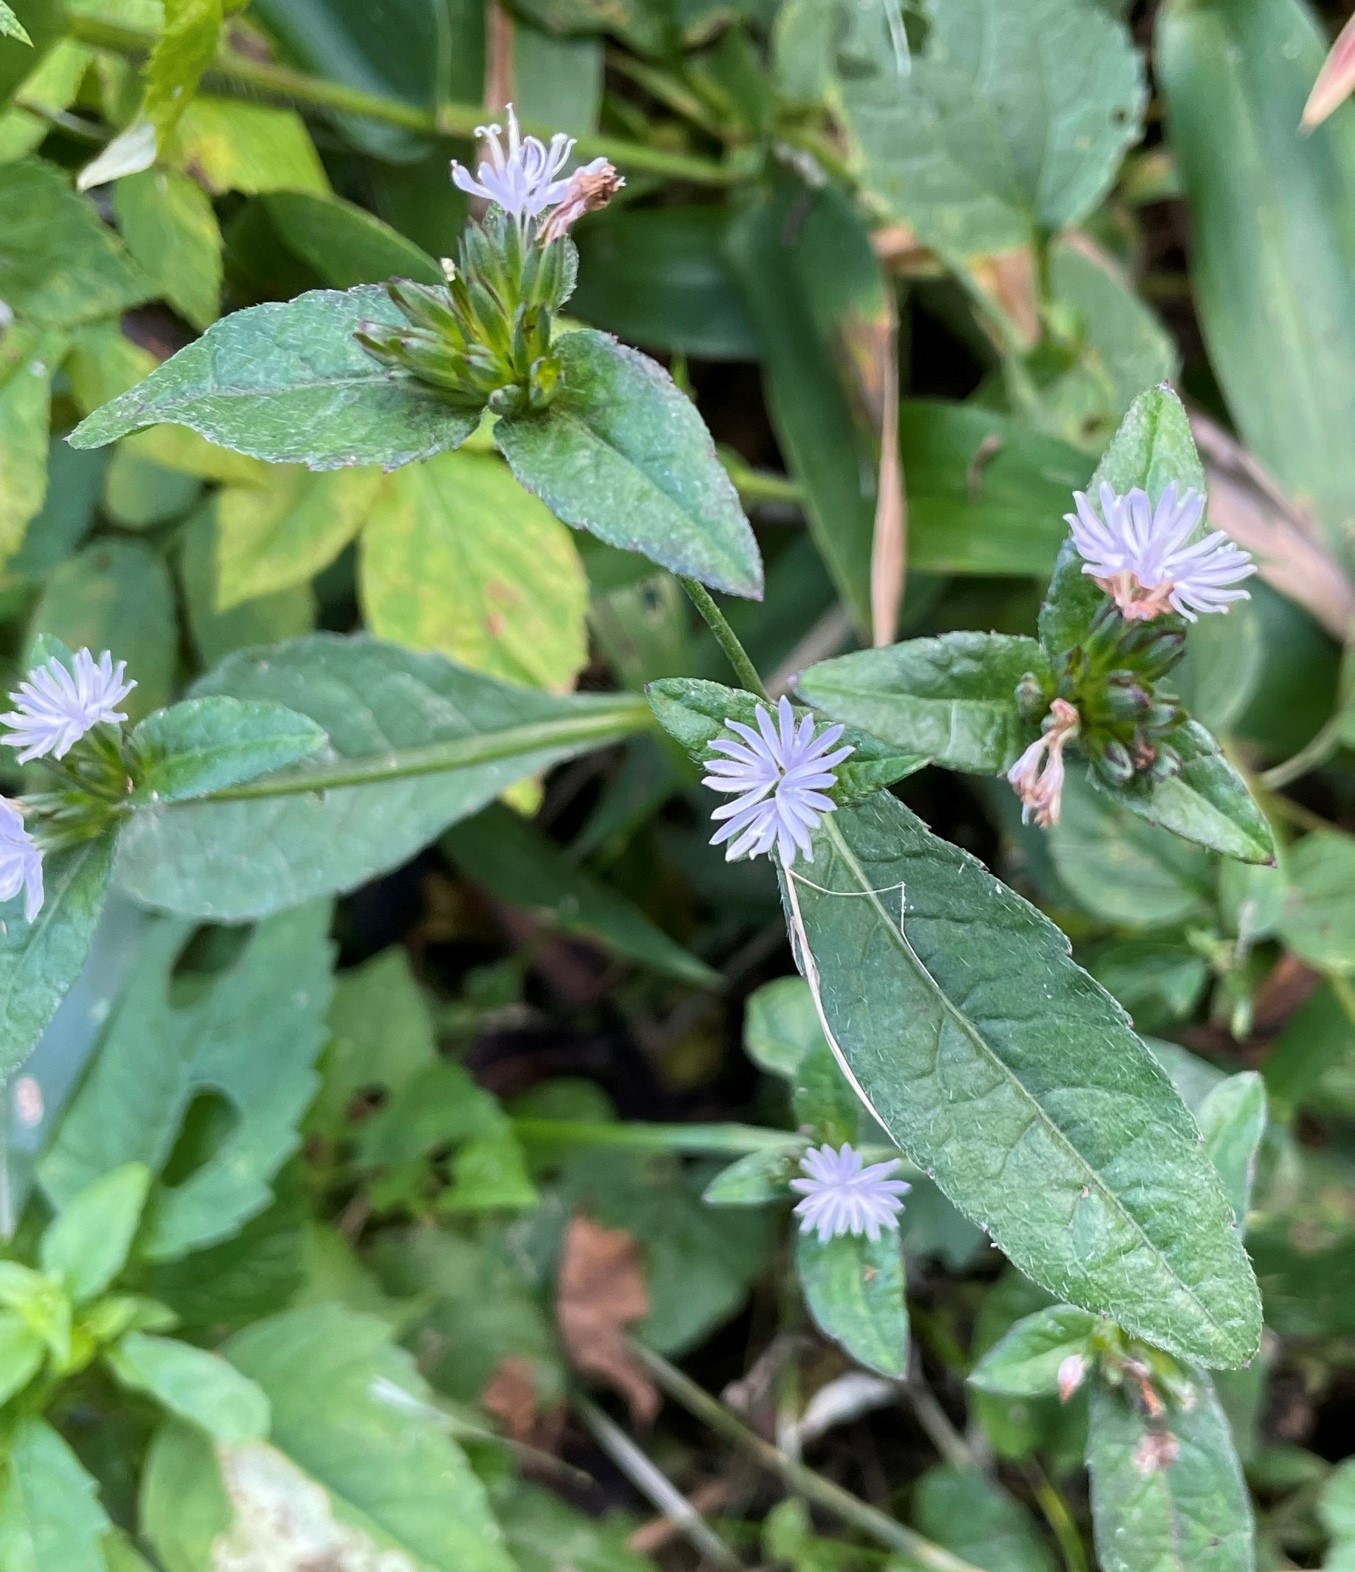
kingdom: Plantae
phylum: Tracheophyta
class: Magnoliopsida
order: Asterales
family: Asteraceae
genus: Elephantopus
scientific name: Elephantopus carolinianus
